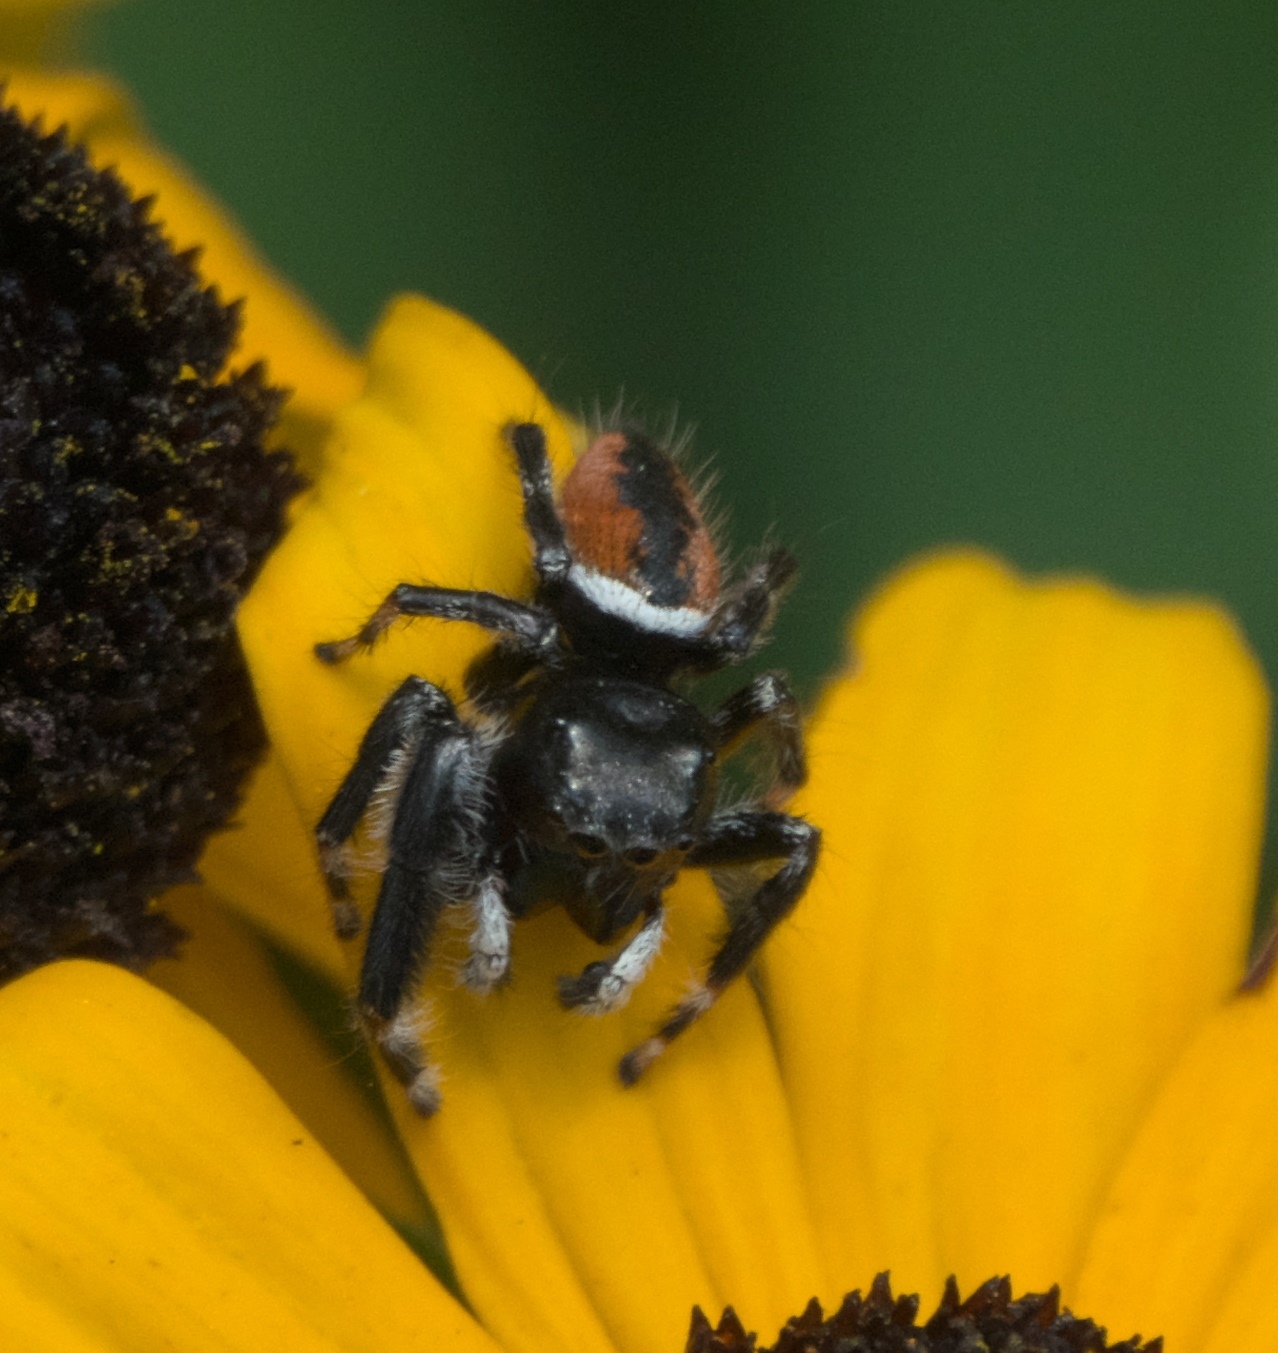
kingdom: Animalia
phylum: Arthropoda
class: Arachnida
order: Araneae
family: Salticidae
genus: Phidippus
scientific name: Phidippus clarus
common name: Brilliant jumping spider
